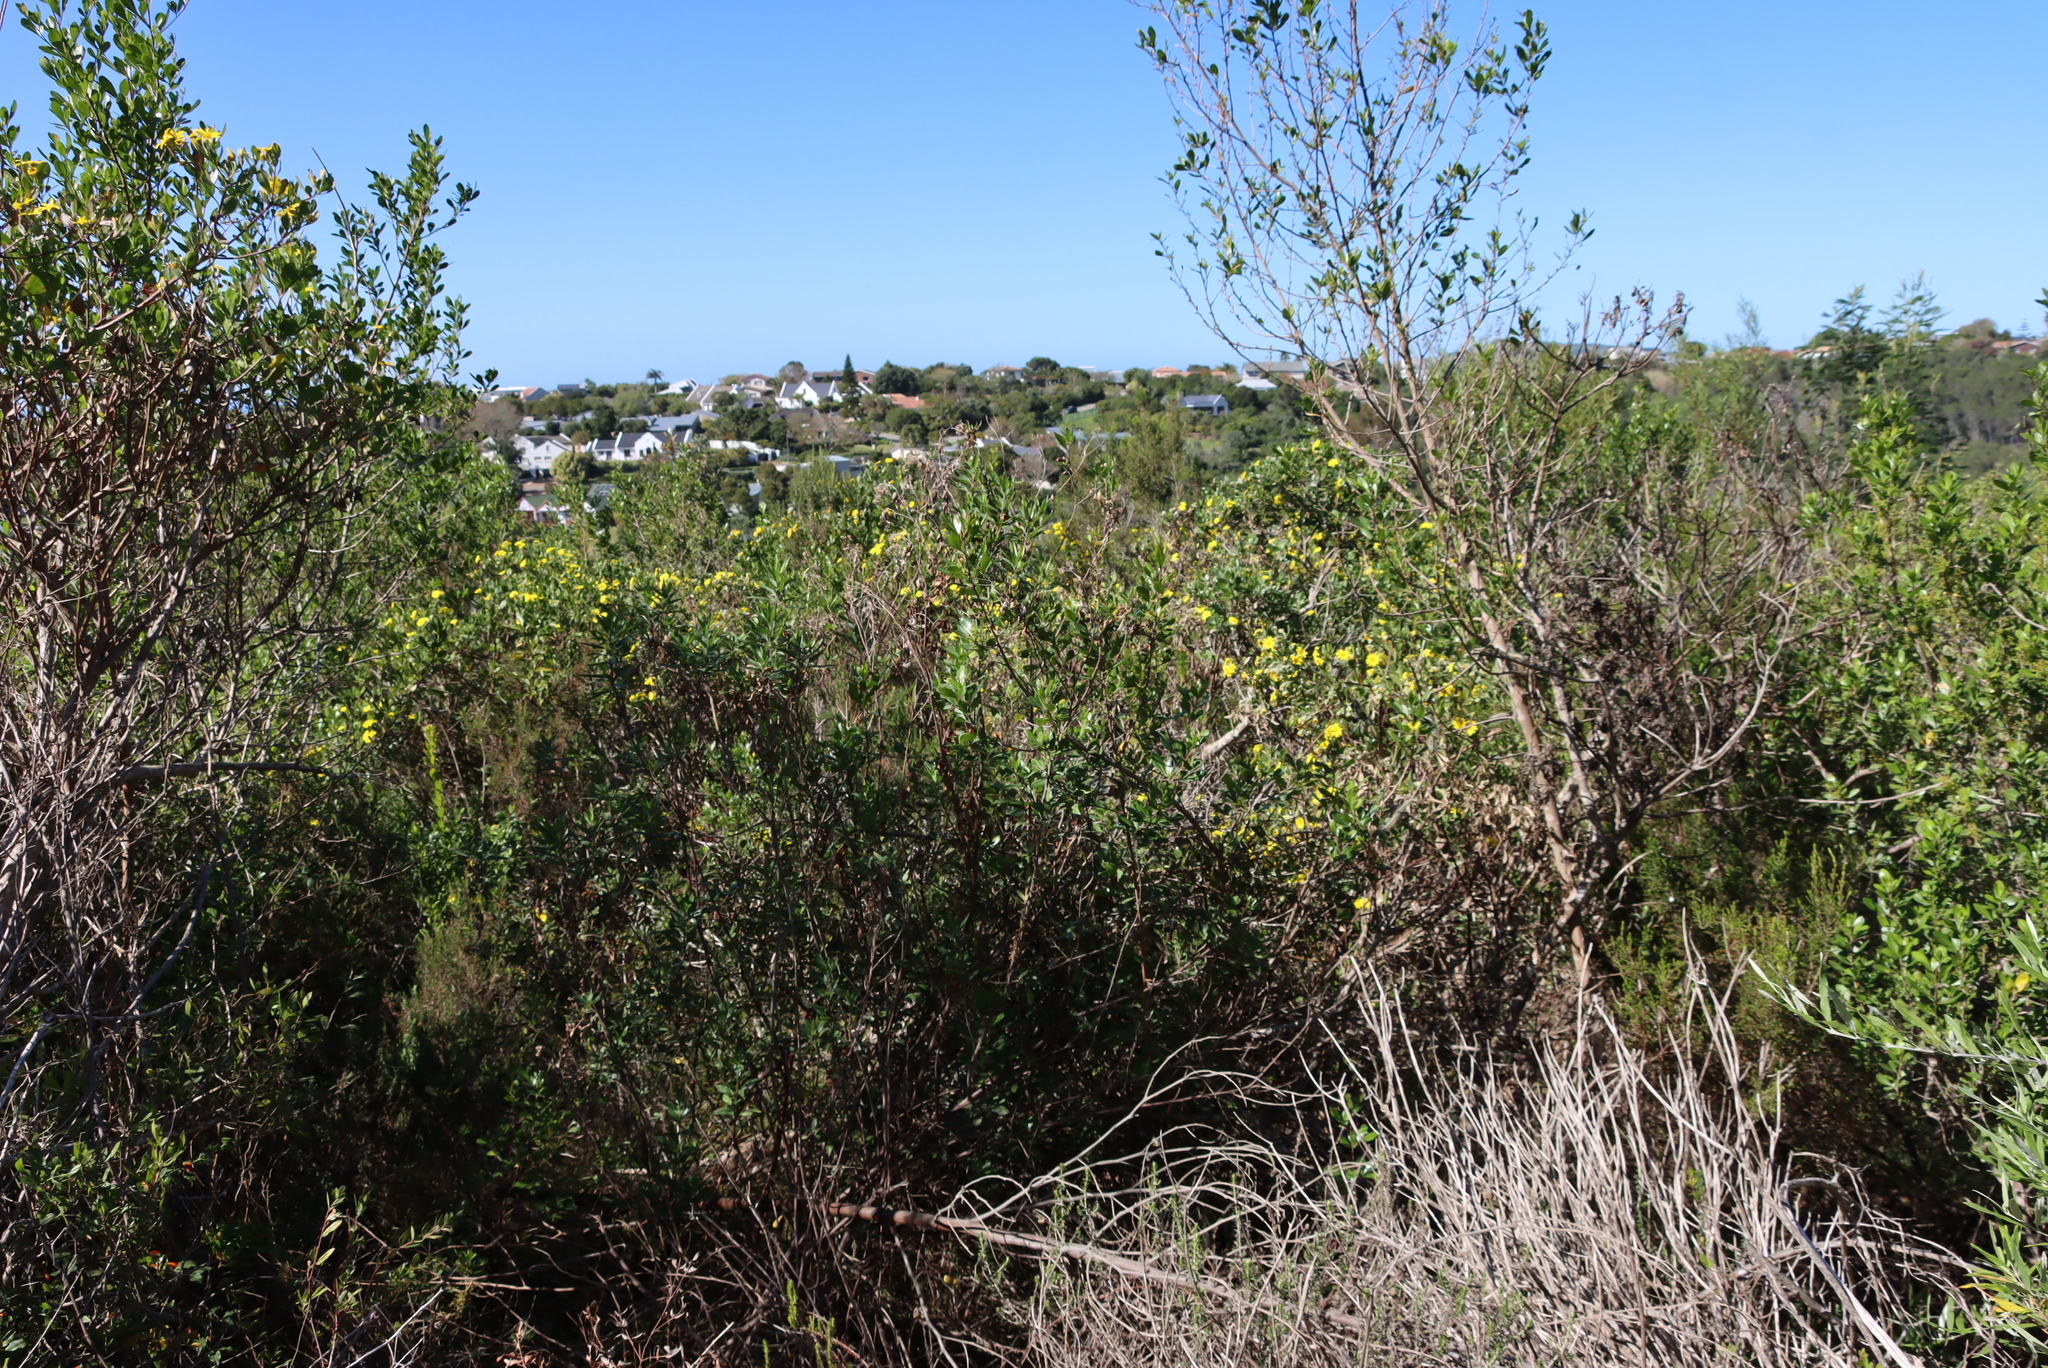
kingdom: Plantae
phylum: Tracheophyta
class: Magnoliopsida
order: Asterales
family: Asteraceae
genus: Osteospermum
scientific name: Osteospermum moniliferum
